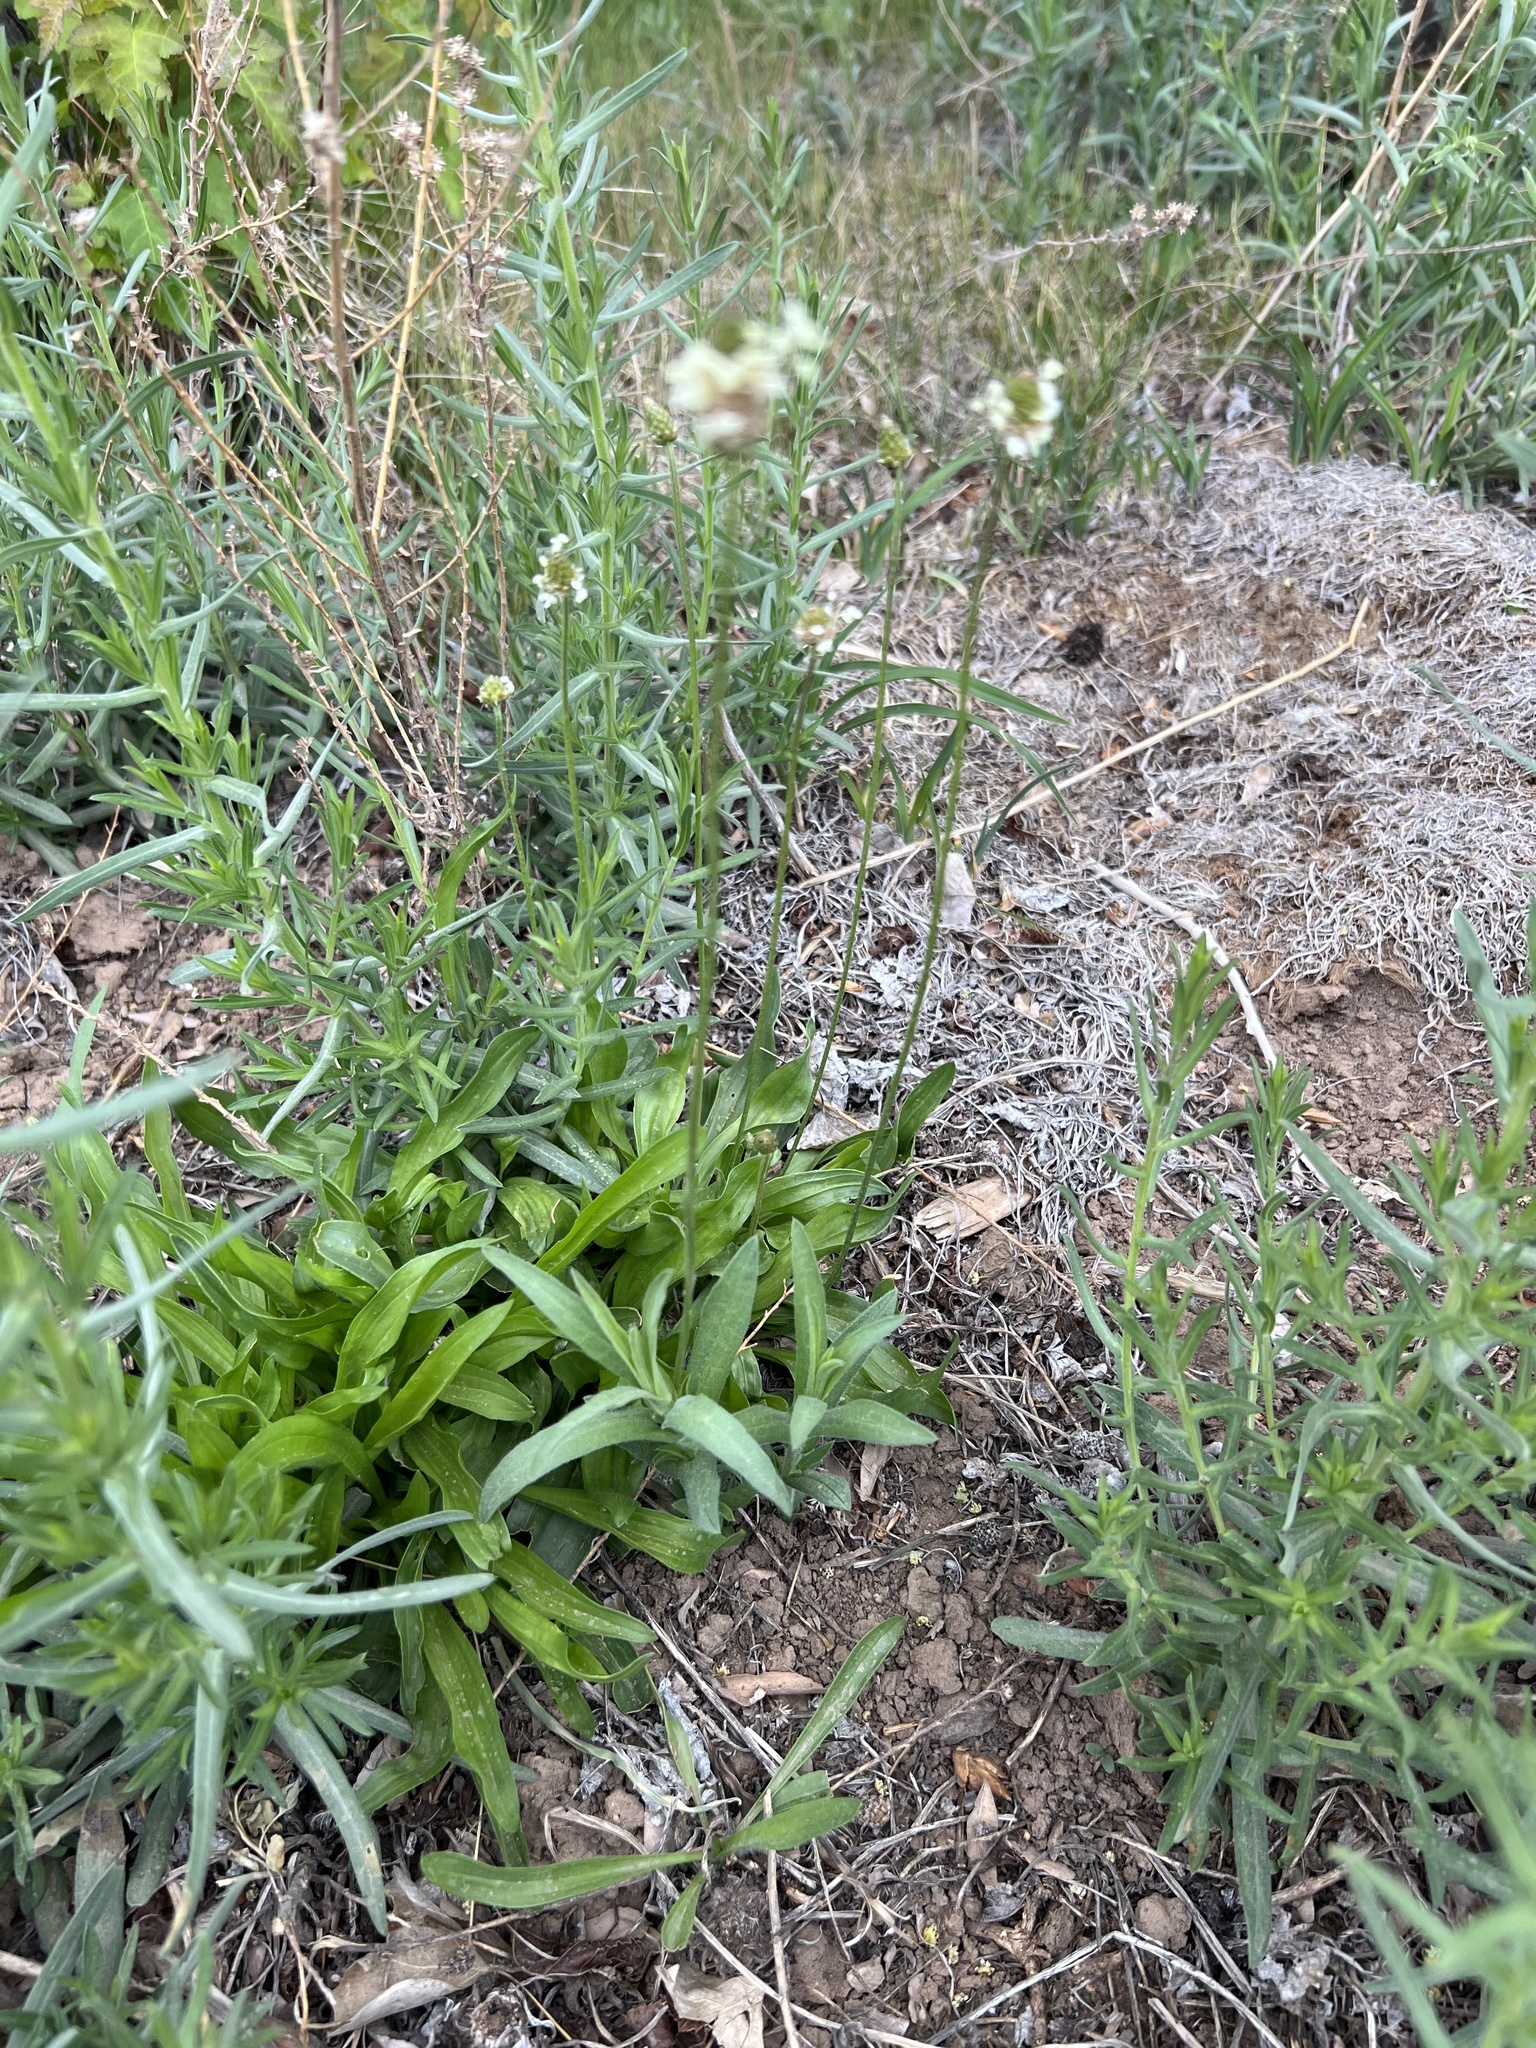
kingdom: Plantae
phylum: Tracheophyta
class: Magnoliopsida
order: Lamiales
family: Plantaginaceae
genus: Plantago
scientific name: Plantago lanceolata
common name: Ribwort plantain
